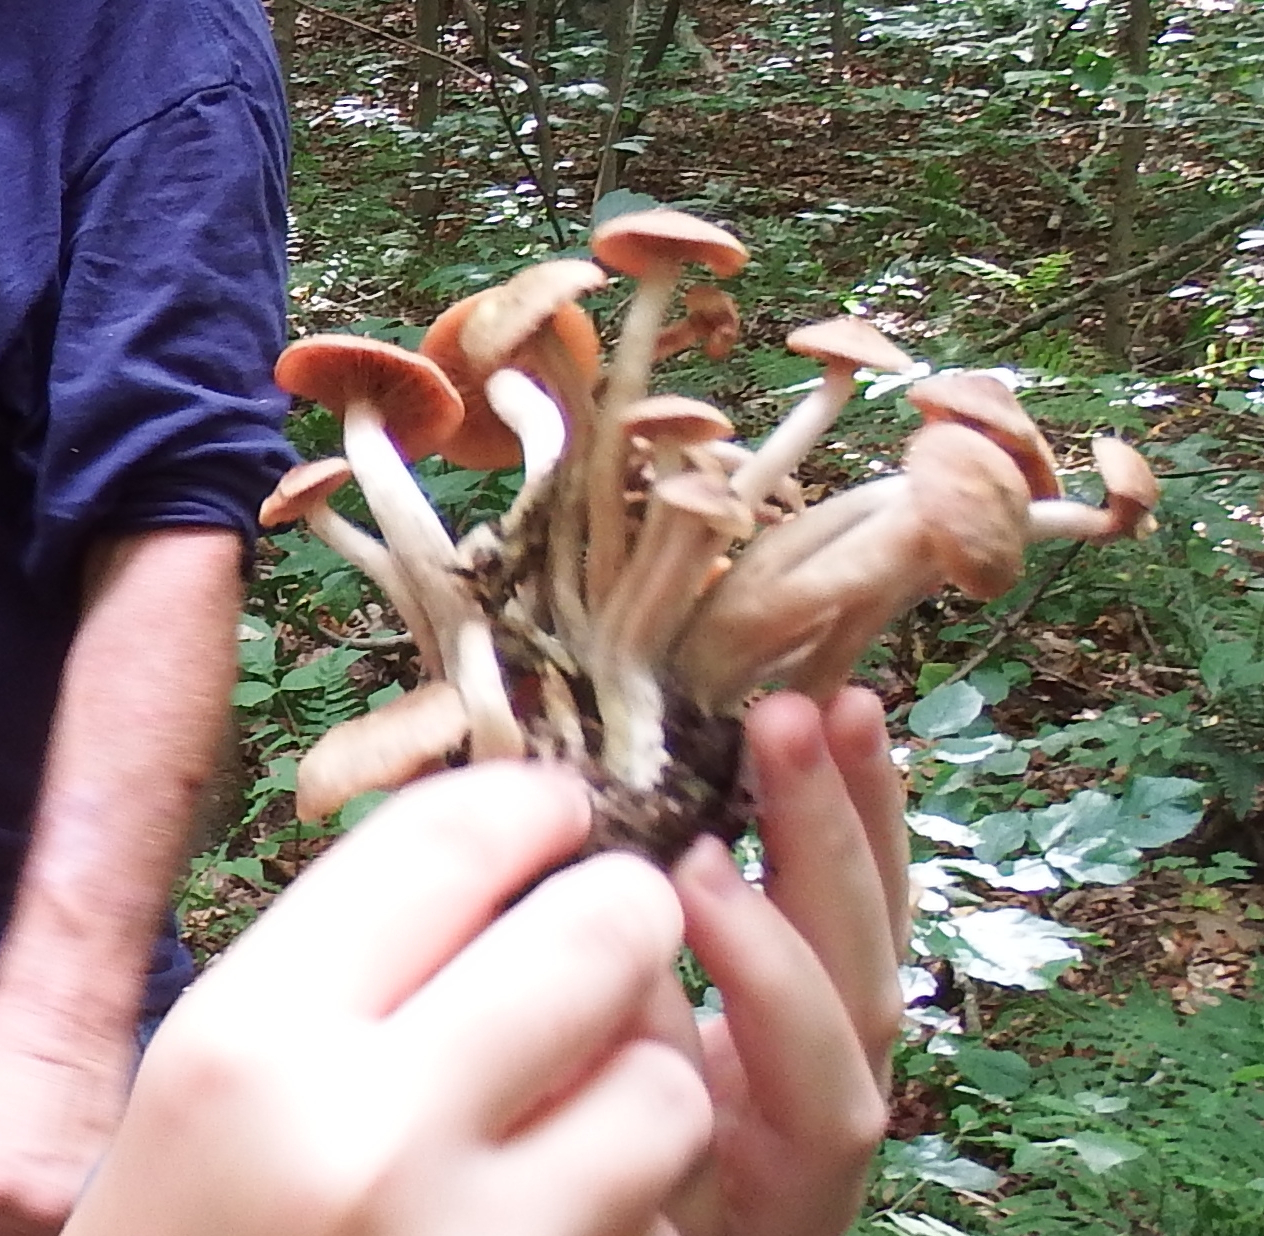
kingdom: Fungi
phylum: Basidiomycota
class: Agaricomycetes
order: Agaricales
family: Physalacriaceae
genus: Desarmillaria
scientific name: Desarmillaria caespitosa
